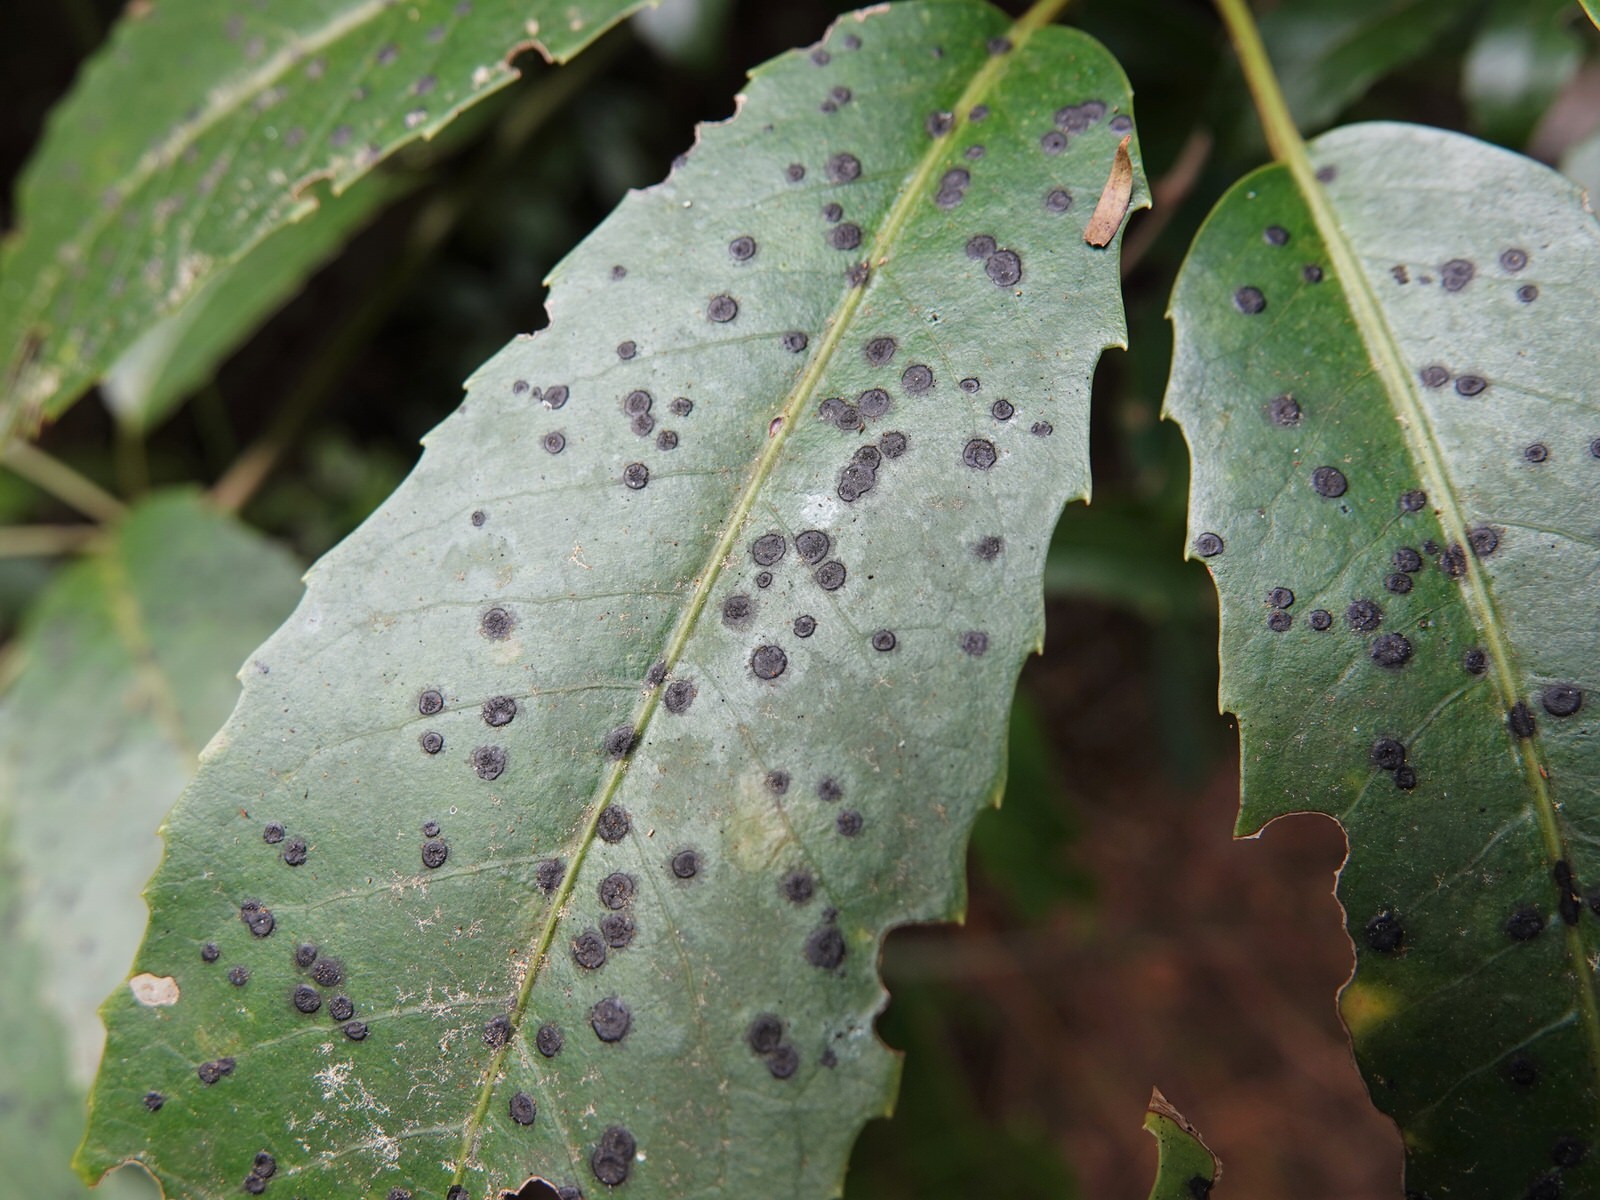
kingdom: Fungi
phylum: Ascomycota
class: Dothideomycetes
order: Asterinales
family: Asterinaceae
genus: Placosoma
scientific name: Placosoma nothopanacis
